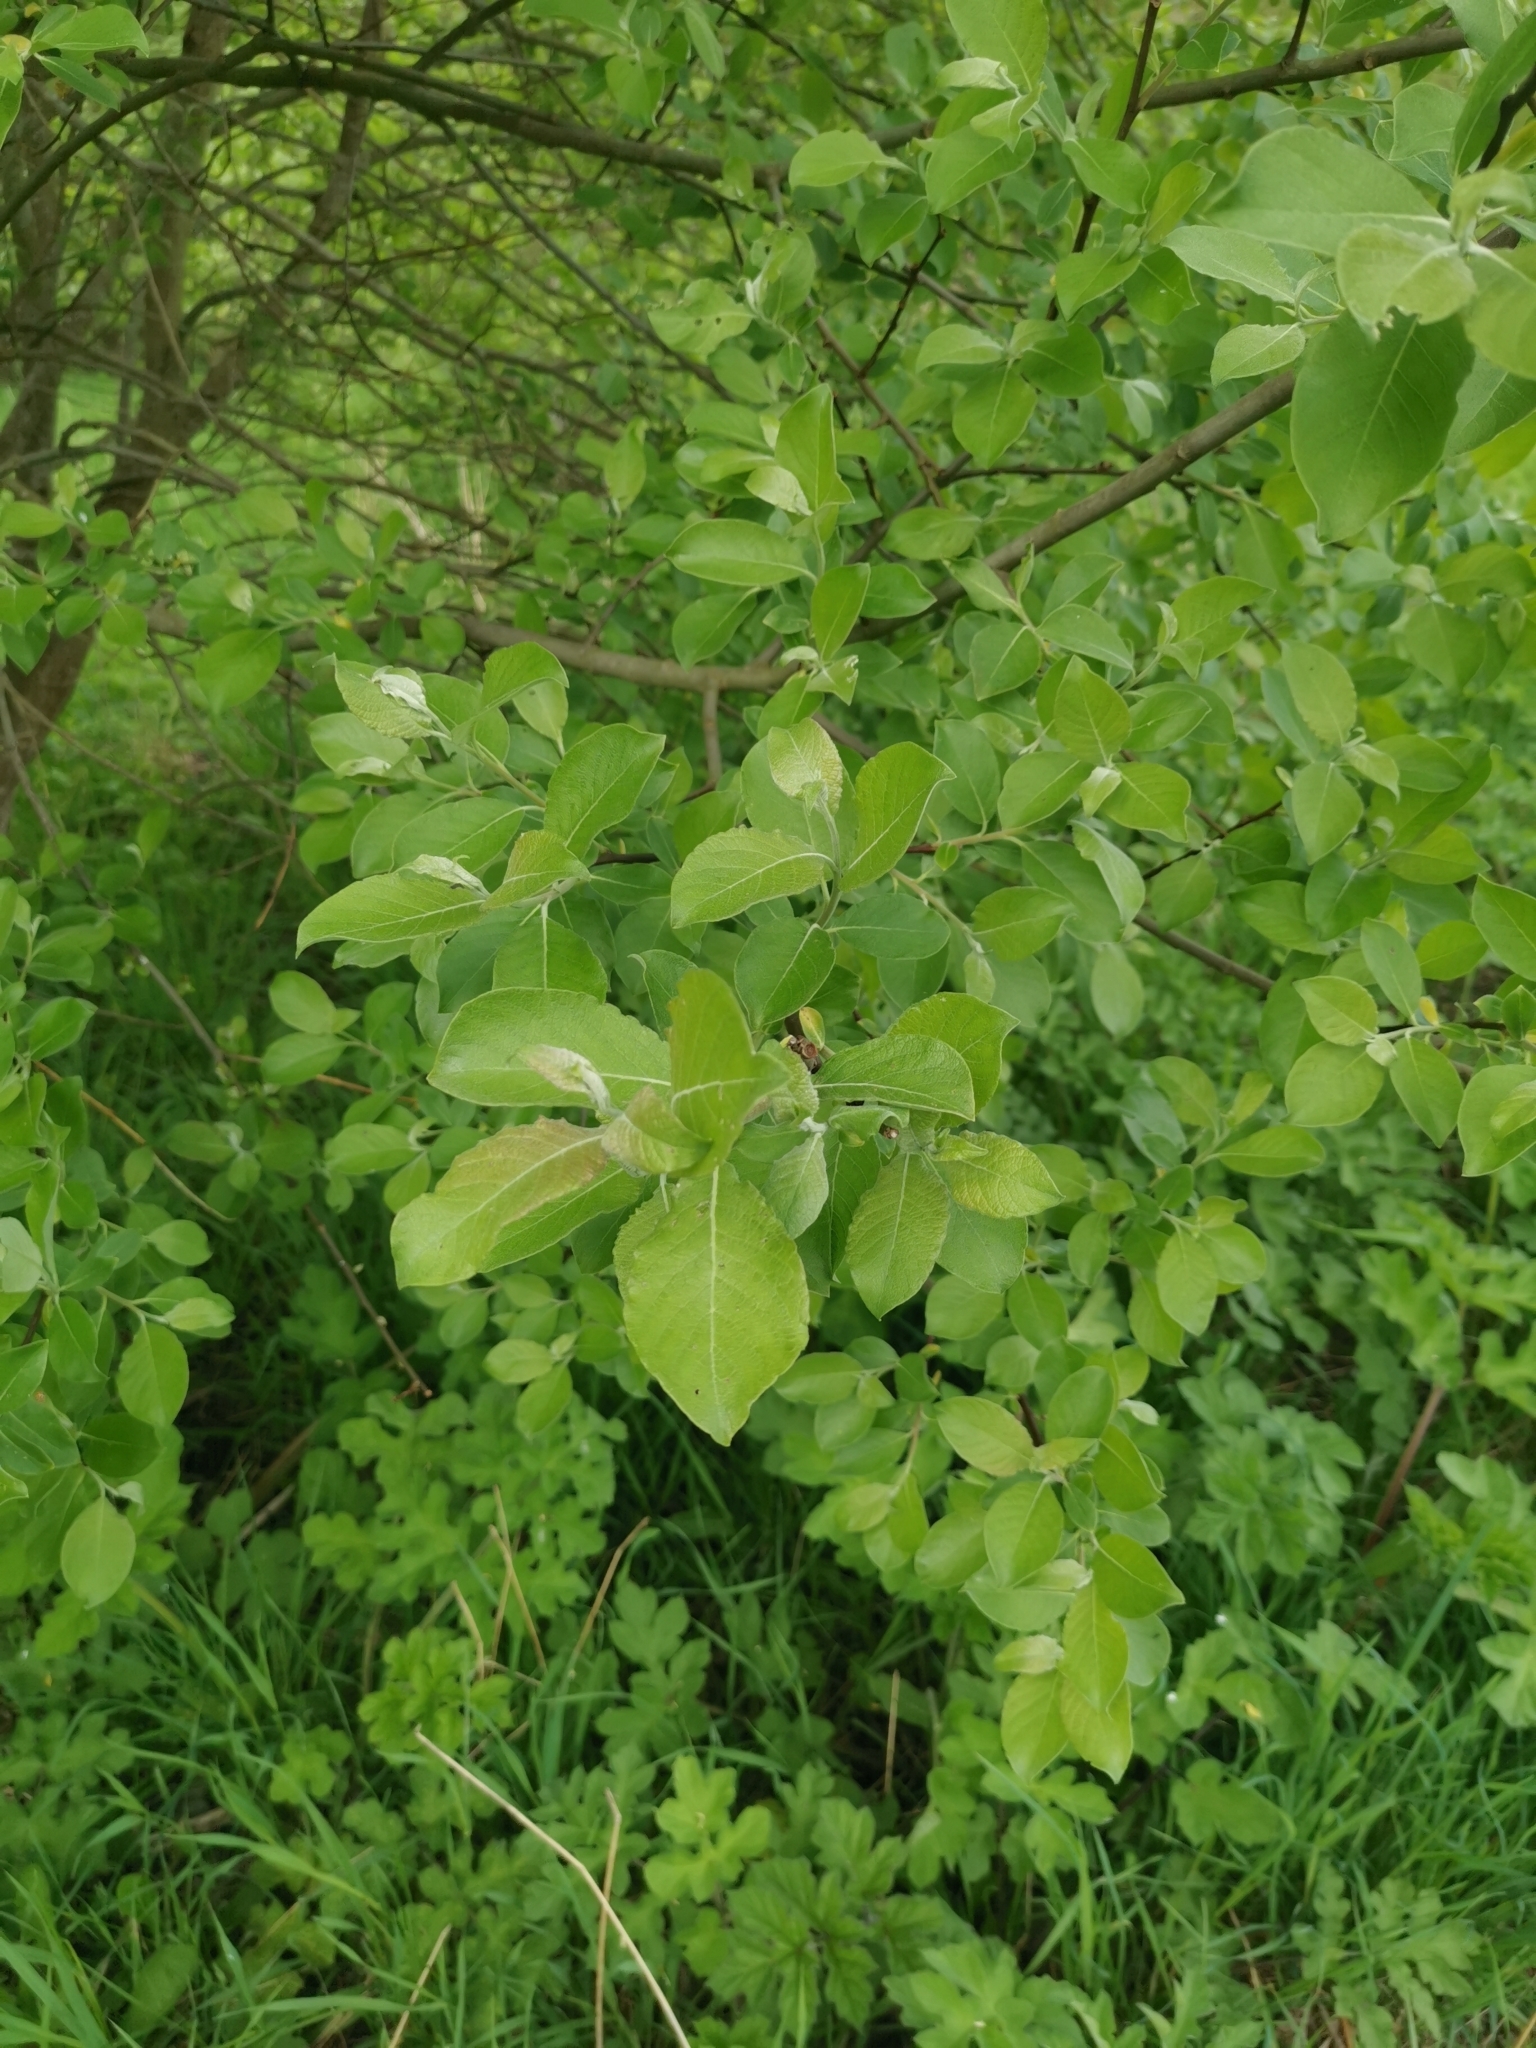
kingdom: Plantae
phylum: Tracheophyta
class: Magnoliopsida
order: Malpighiales
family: Salicaceae
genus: Salix
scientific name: Salix caprea
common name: Goat willow
